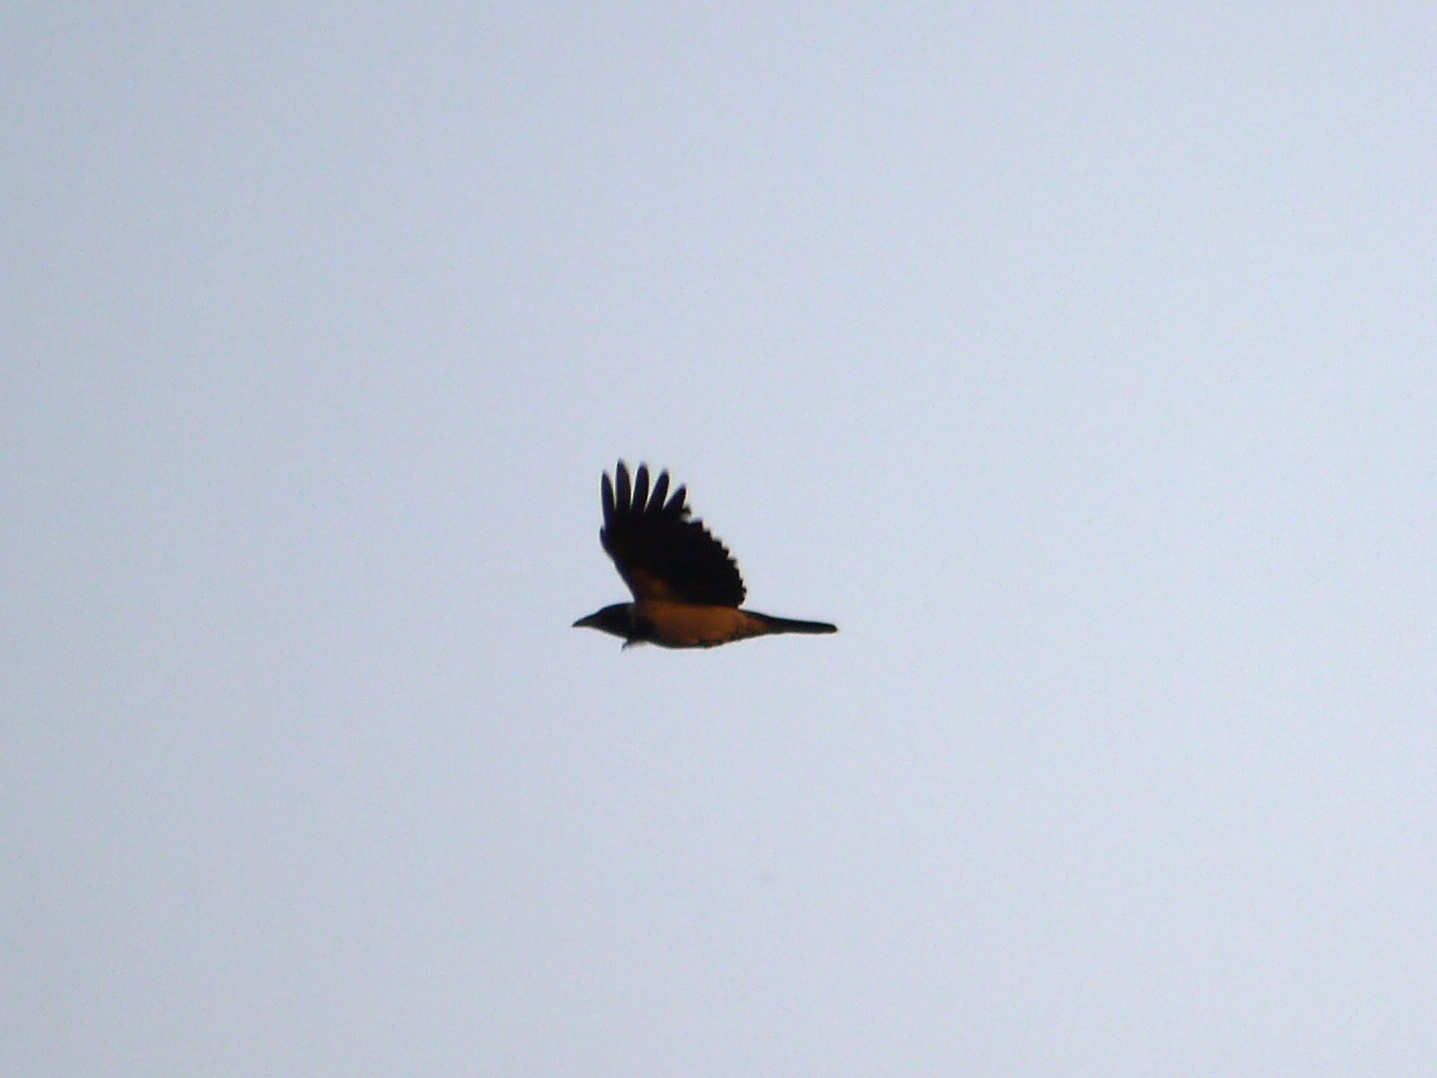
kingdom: Animalia
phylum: Chordata
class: Aves
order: Passeriformes
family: Corvidae
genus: Corvus
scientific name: Corvus cornix
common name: Hooded crow
